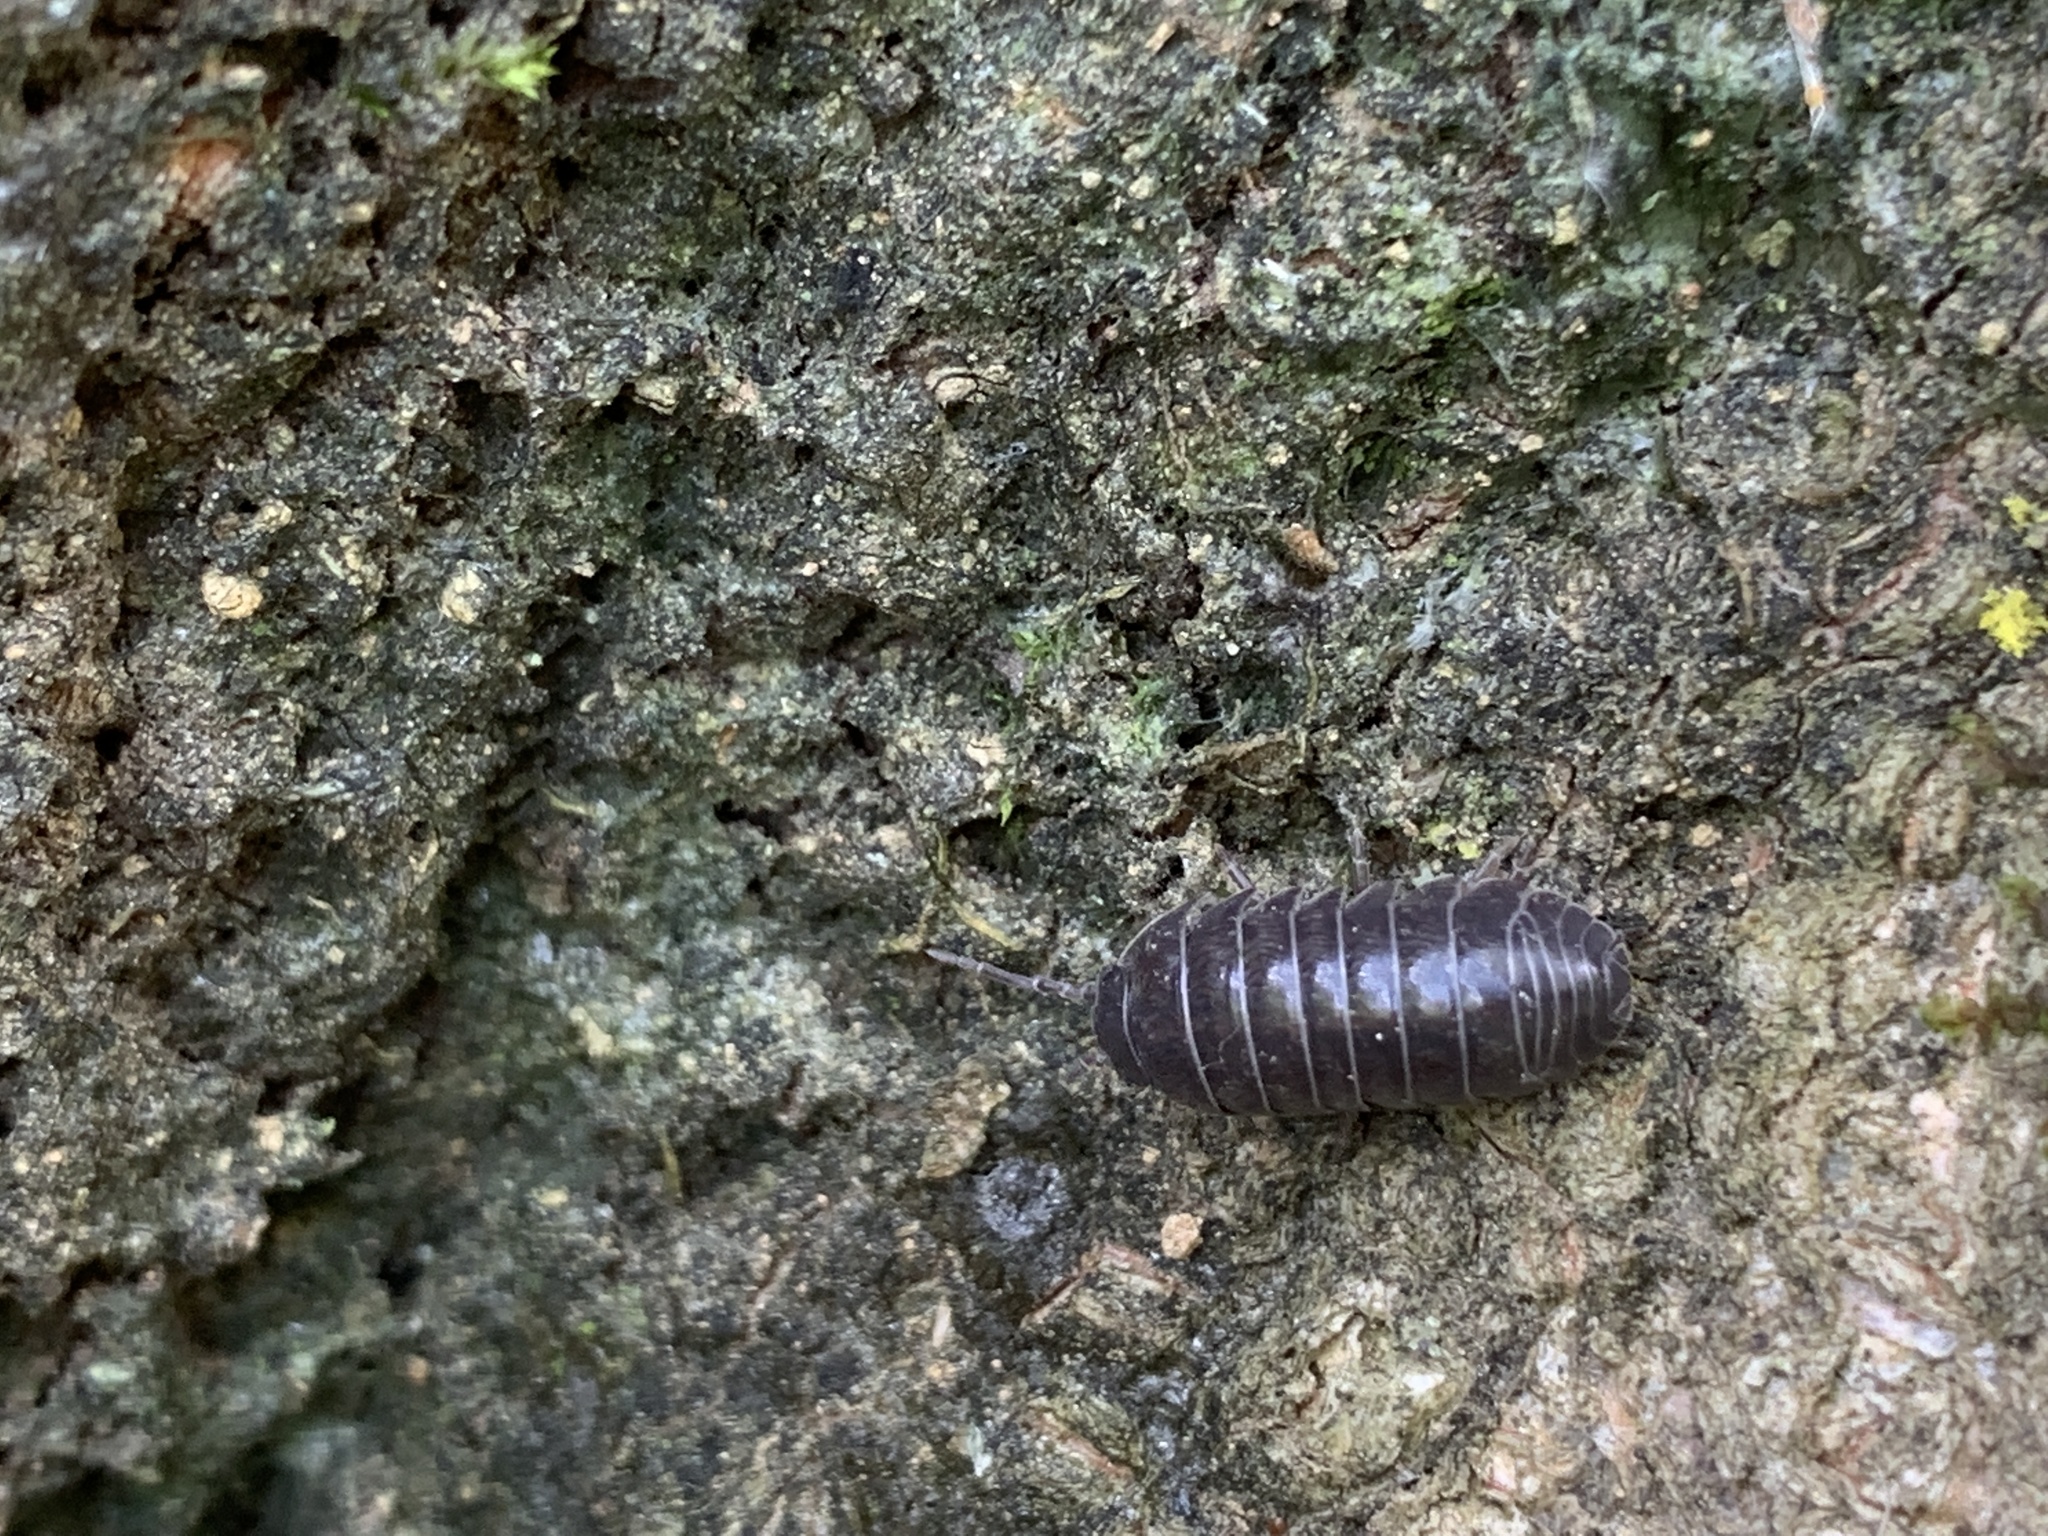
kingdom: Animalia
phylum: Arthropoda
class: Malacostraca
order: Isopoda
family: Armadillidiidae
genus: Armadillidium
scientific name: Armadillidium vulgare
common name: Common pill woodlouse
